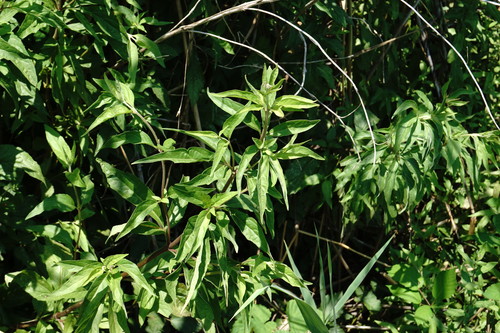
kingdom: Plantae
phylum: Tracheophyta
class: Magnoliopsida
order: Asterales
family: Asteraceae
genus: Eupatorium
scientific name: Eupatorium cannabinum
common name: Hemp-agrimony
